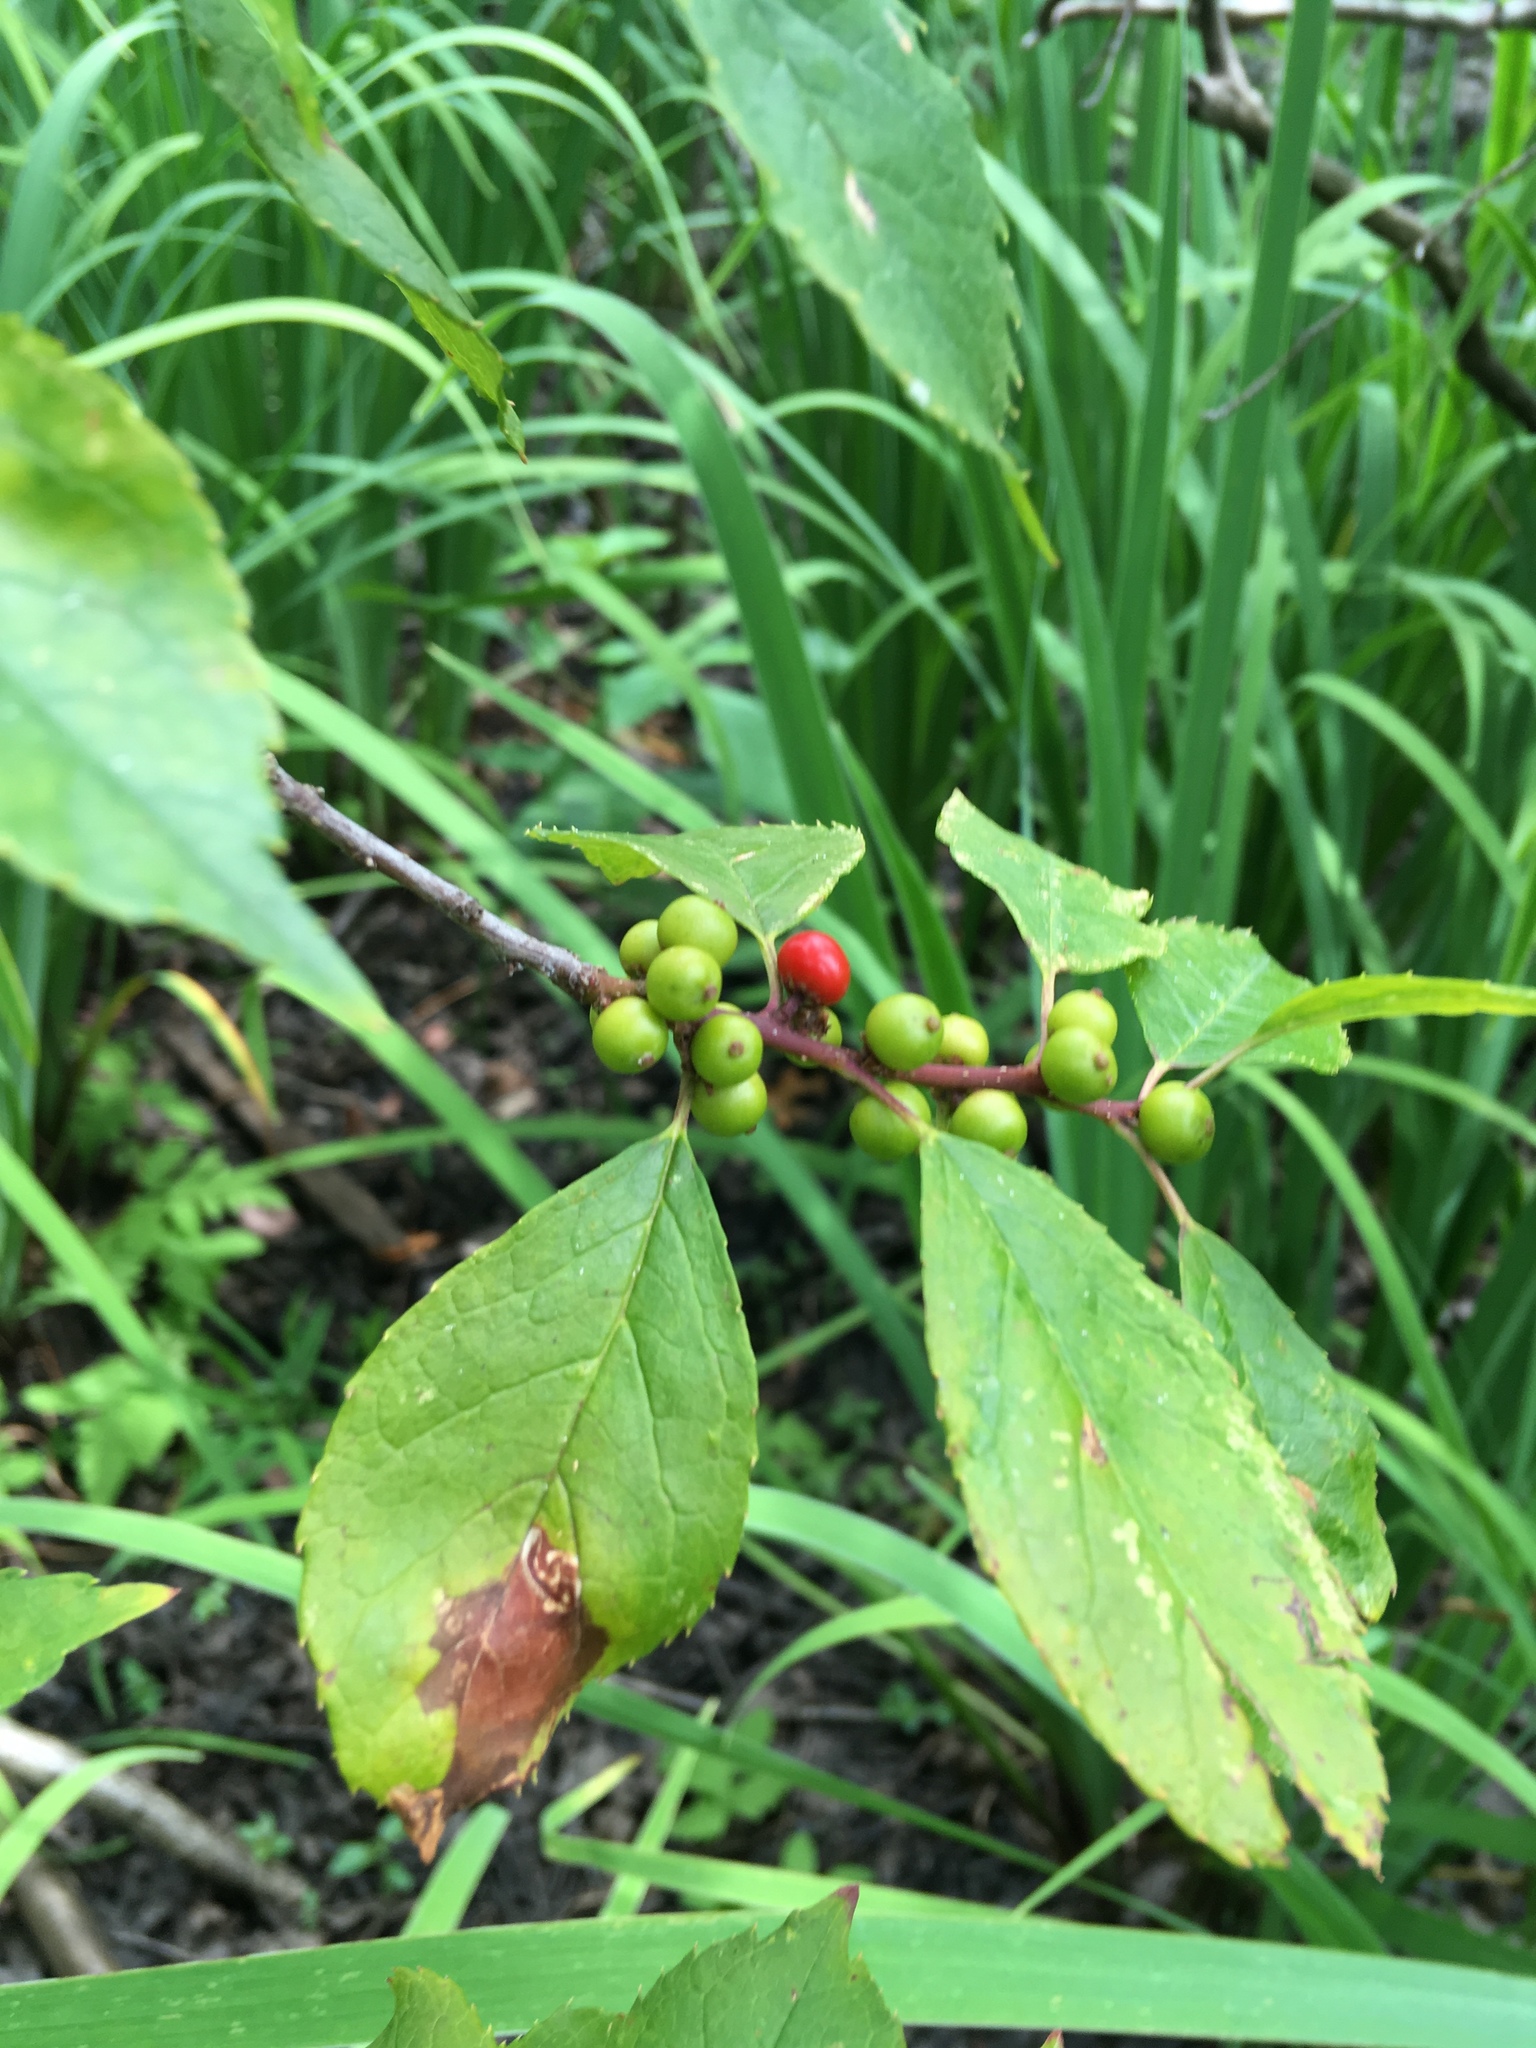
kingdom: Plantae
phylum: Tracheophyta
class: Magnoliopsida
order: Aquifoliales
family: Aquifoliaceae
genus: Ilex
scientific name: Ilex verticillata
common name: Virginia winterberry
